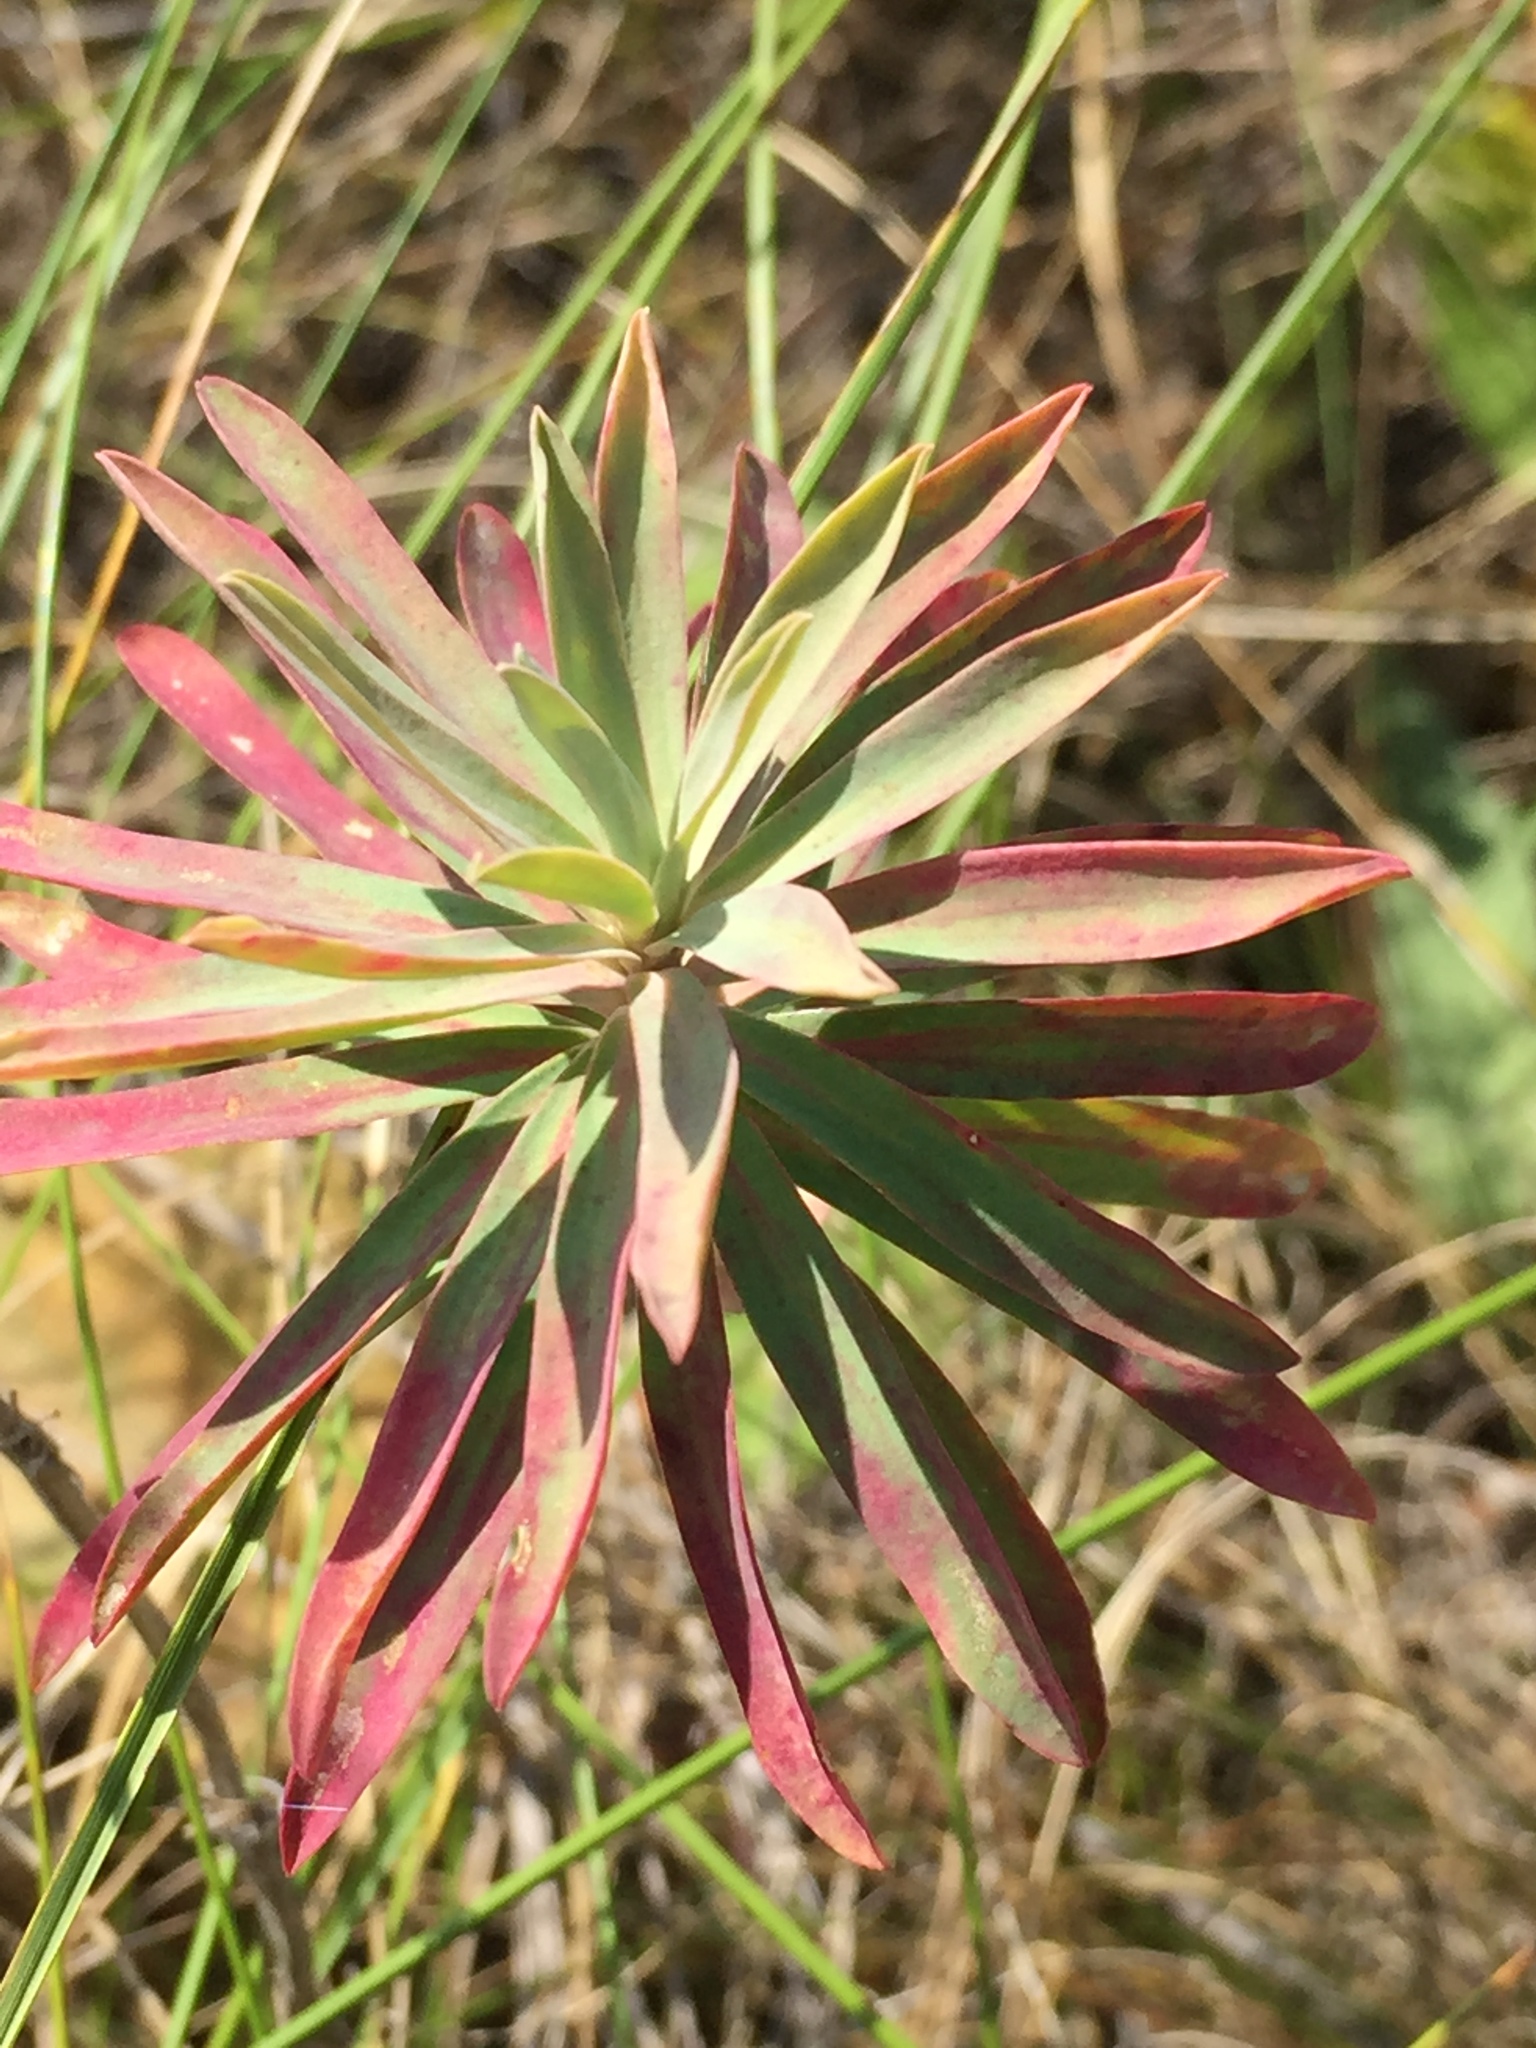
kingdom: Plantae
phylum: Tracheophyta
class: Magnoliopsida
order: Malpighiales
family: Euphorbiaceae
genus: Euphorbia
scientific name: Euphorbia stepposa
